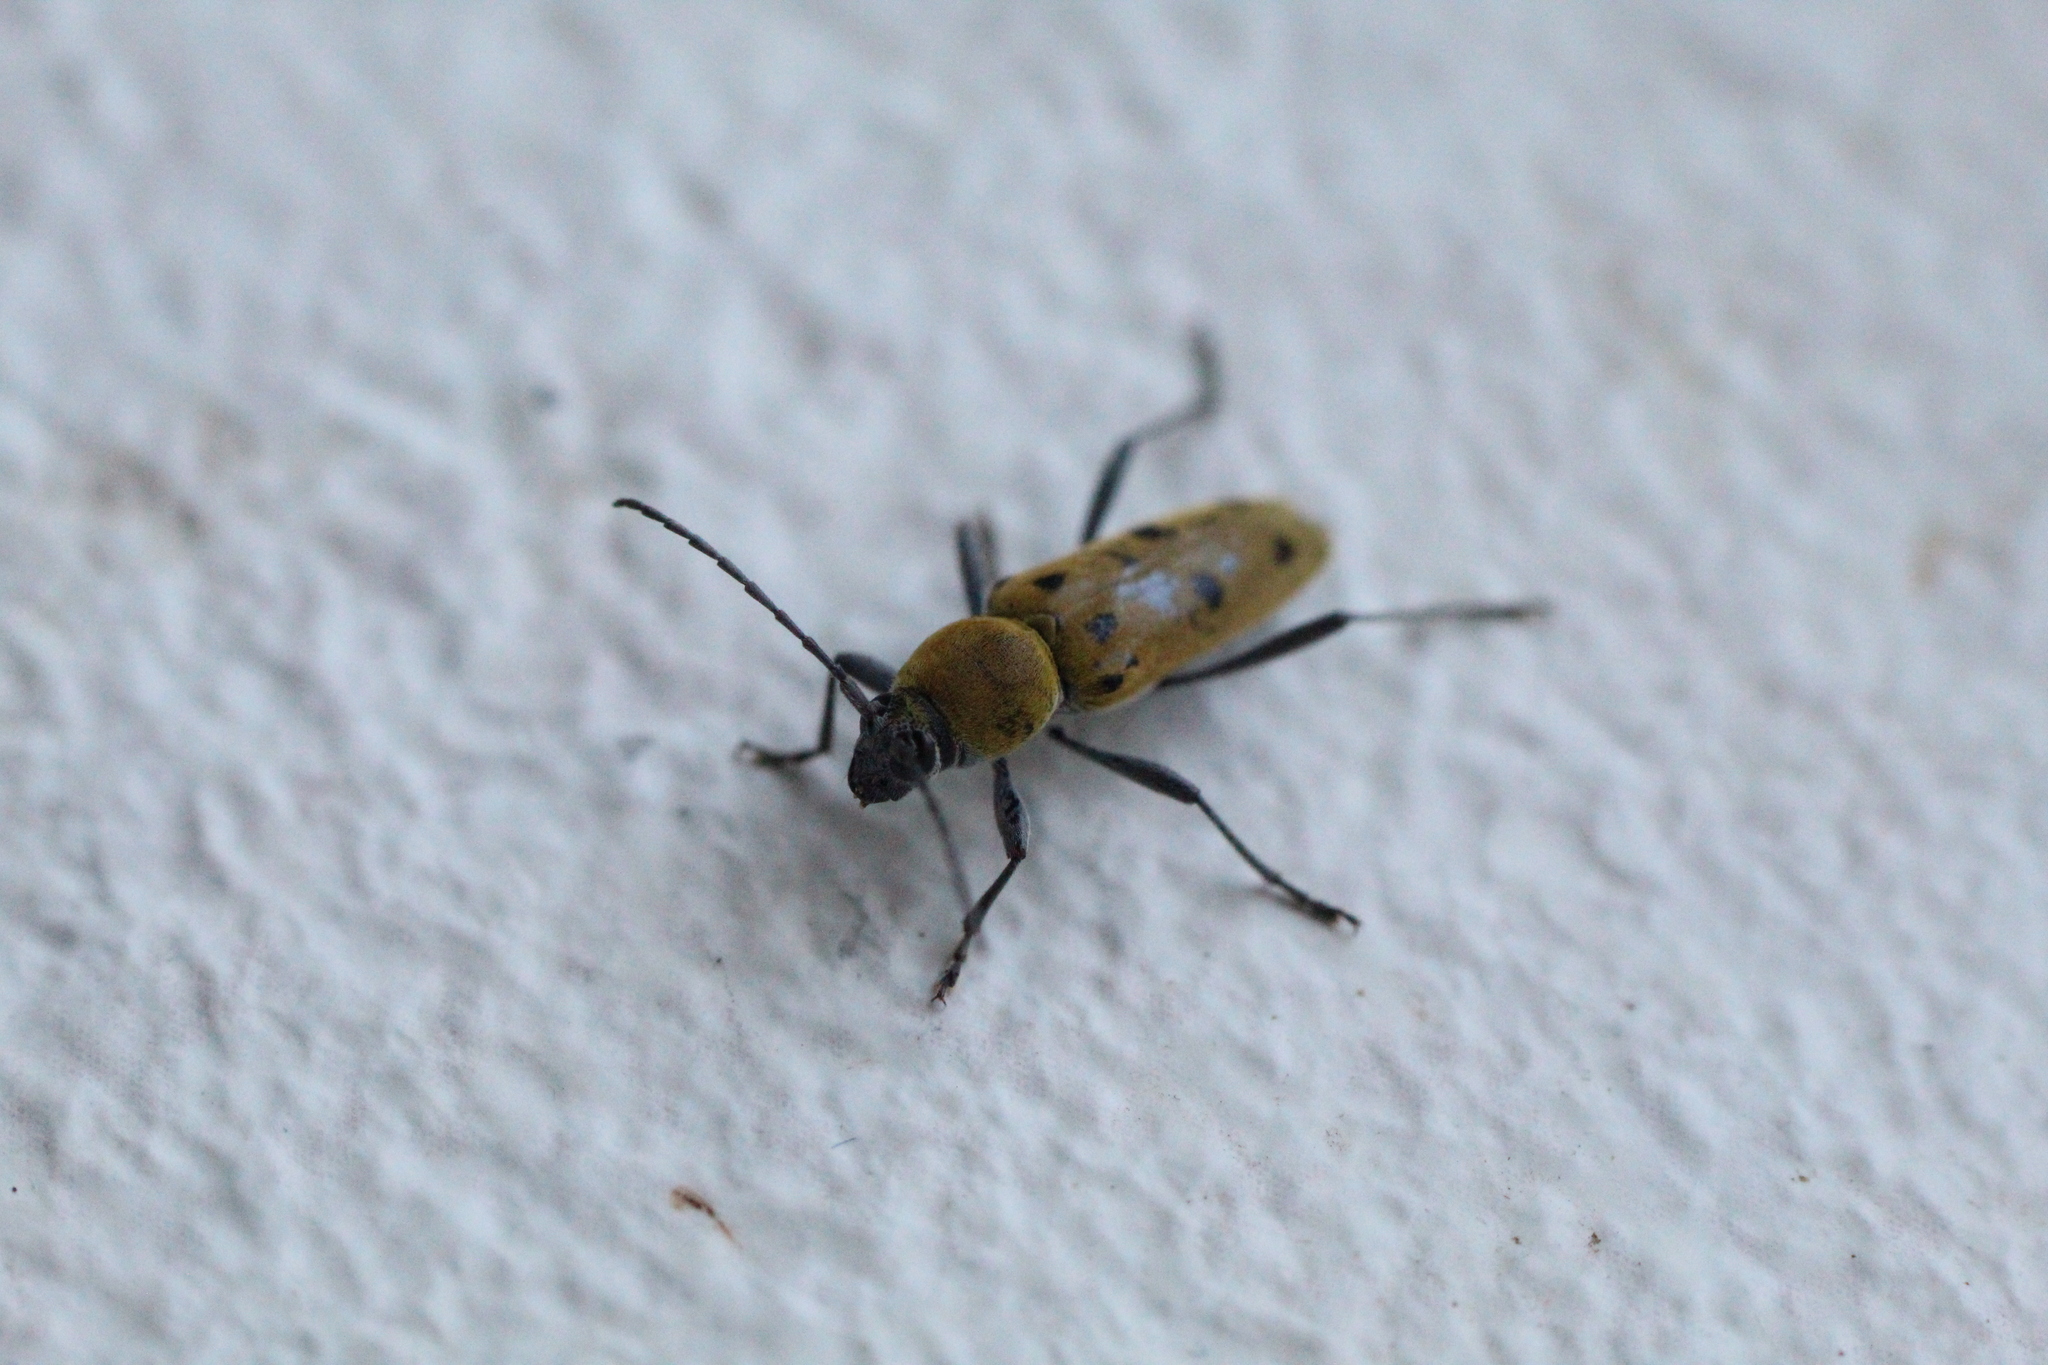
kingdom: Animalia
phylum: Arthropoda
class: Insecta
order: Coleoptera
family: Cerambycidae
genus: Chlorophorus
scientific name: Chlorophorus glabromaculatus
